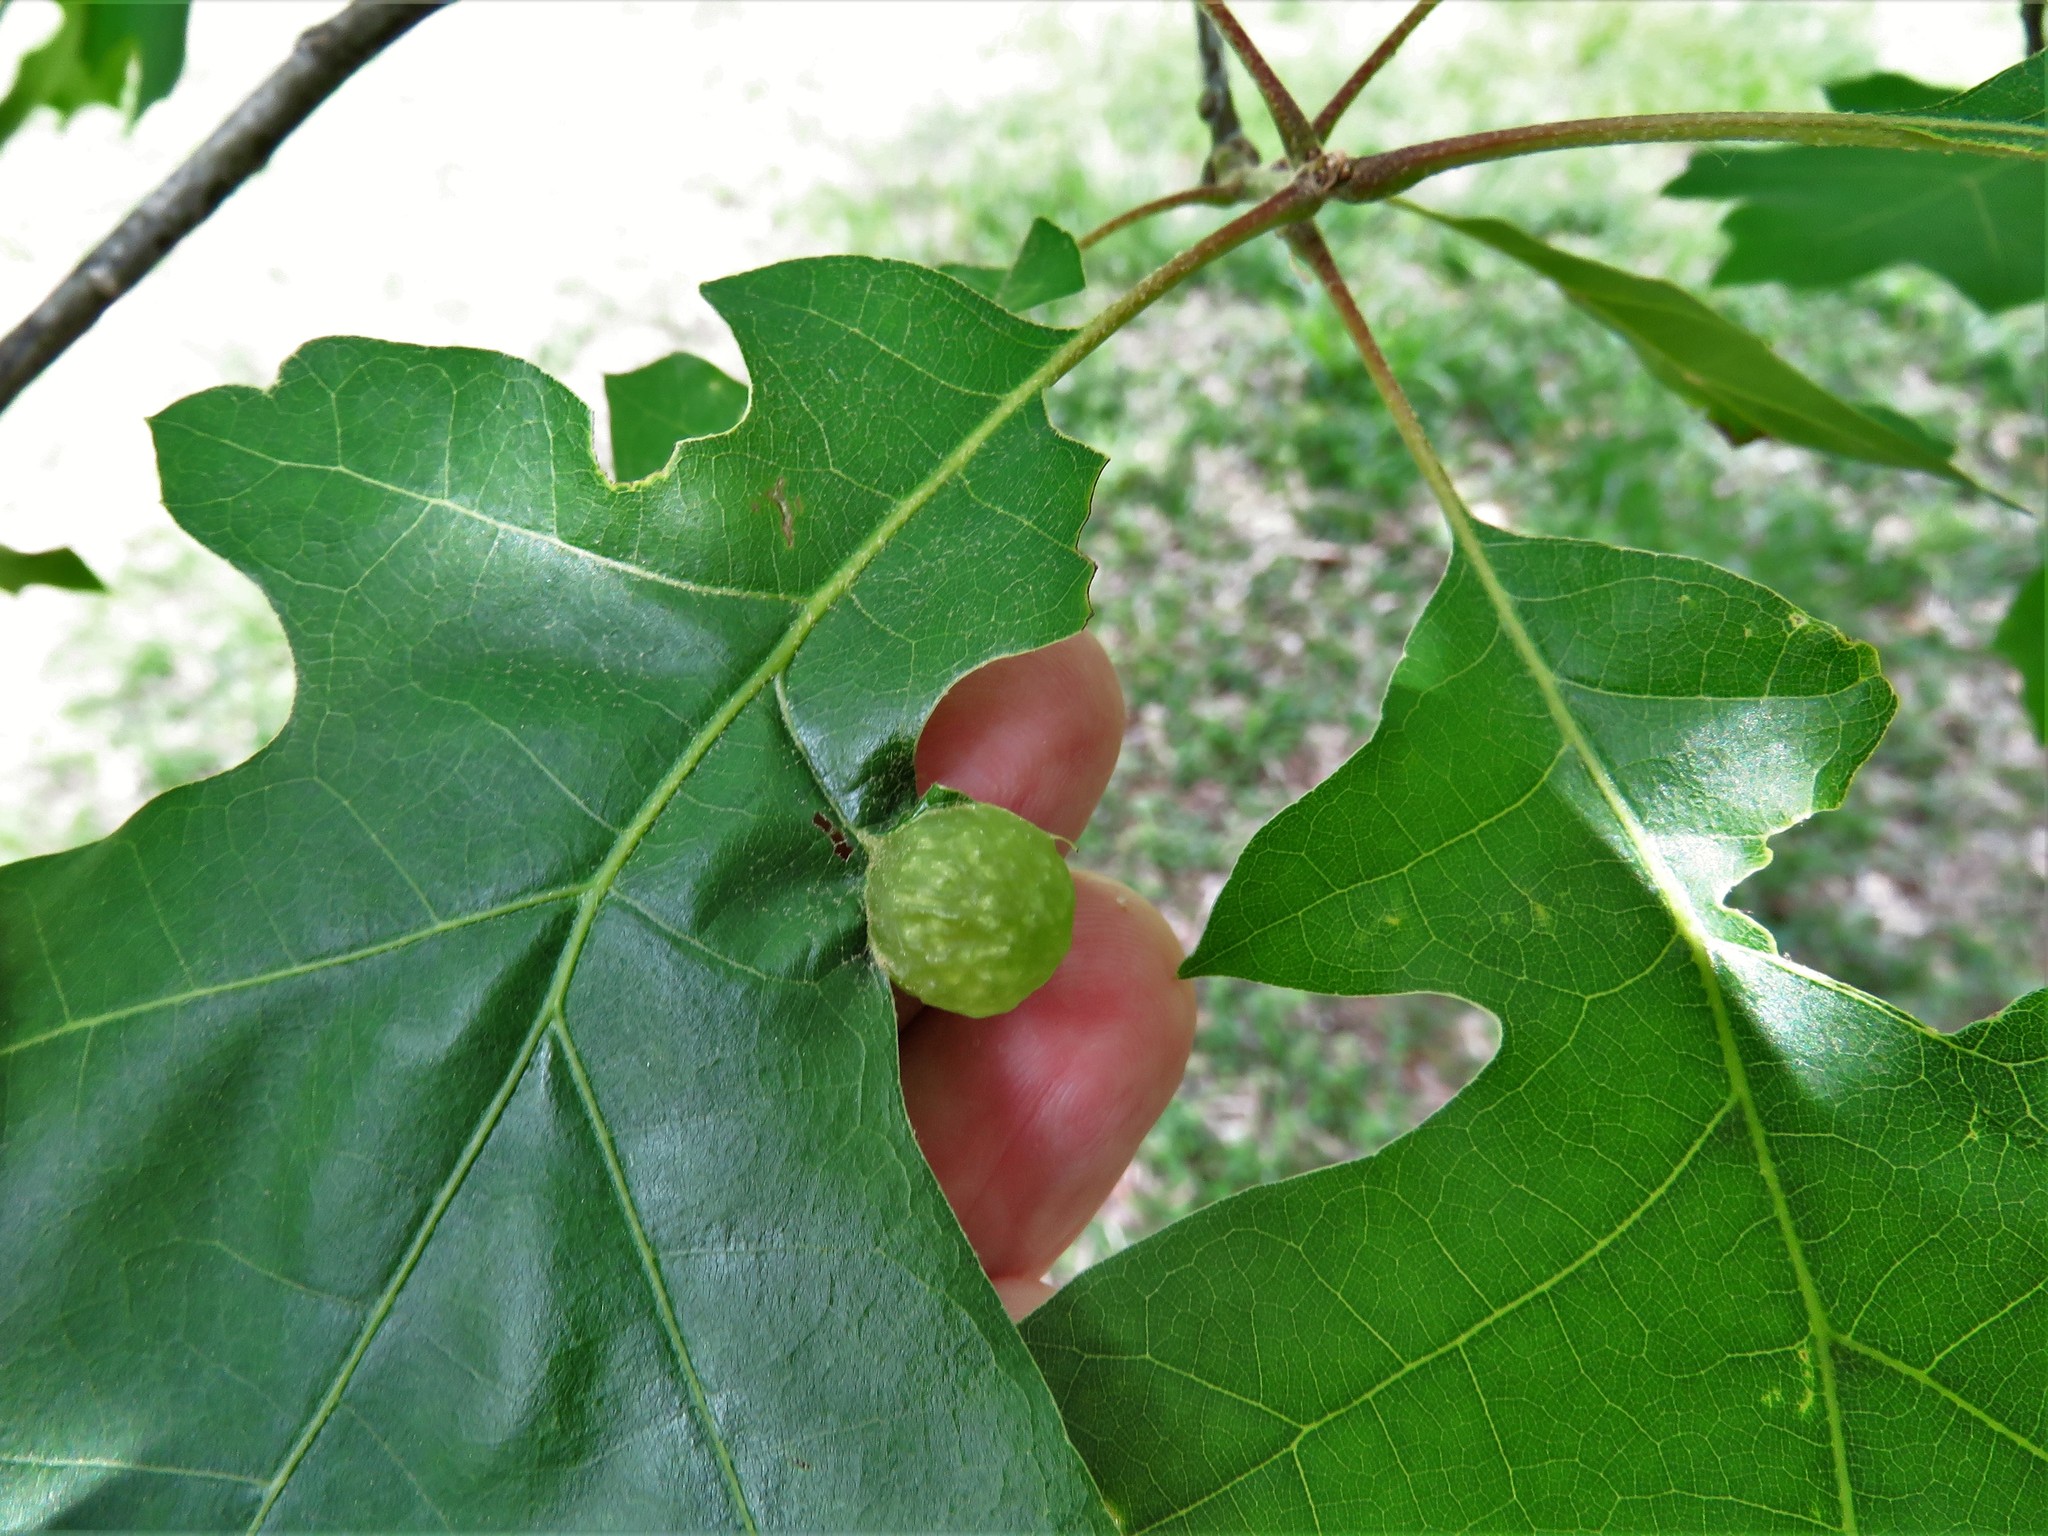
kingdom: Animalia
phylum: Arthropoda
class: Insecta
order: Hymenoptera
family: Cynipidae
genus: Dryocosmus
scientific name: Dryocosmus quercuspalustris
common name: Succulent oak gall wasp
